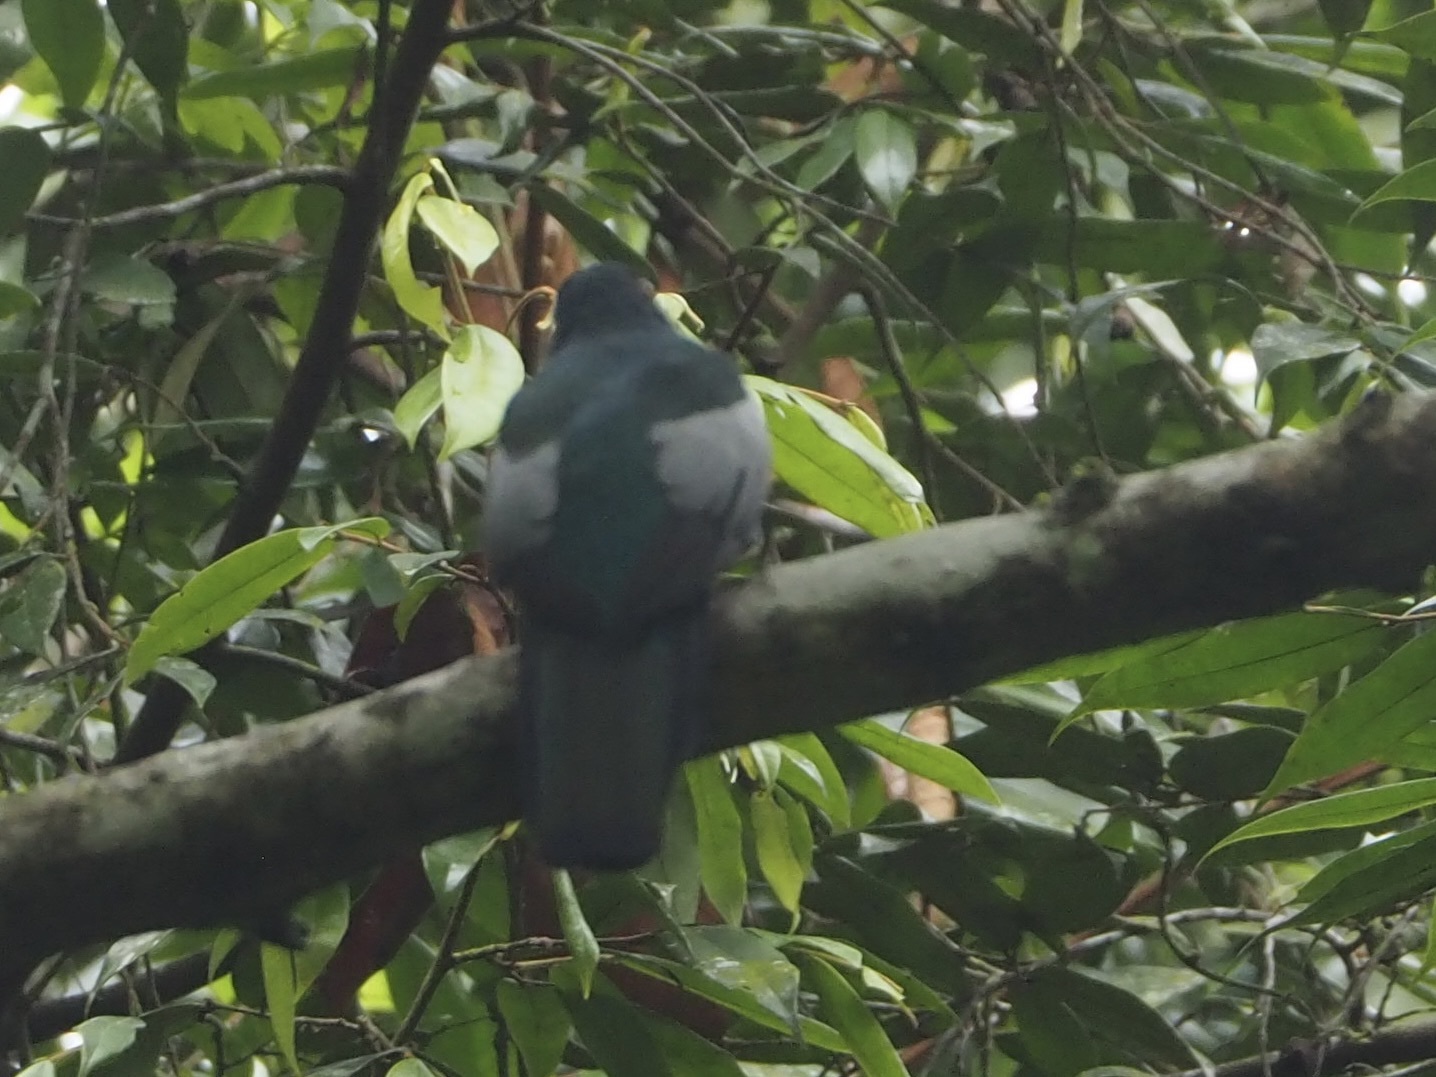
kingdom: Animalia
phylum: Chordata
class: Aves
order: Trogoniformes
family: Trogonidae
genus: Trogon
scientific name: Trogon massena
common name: Slaty-tailed trogon
